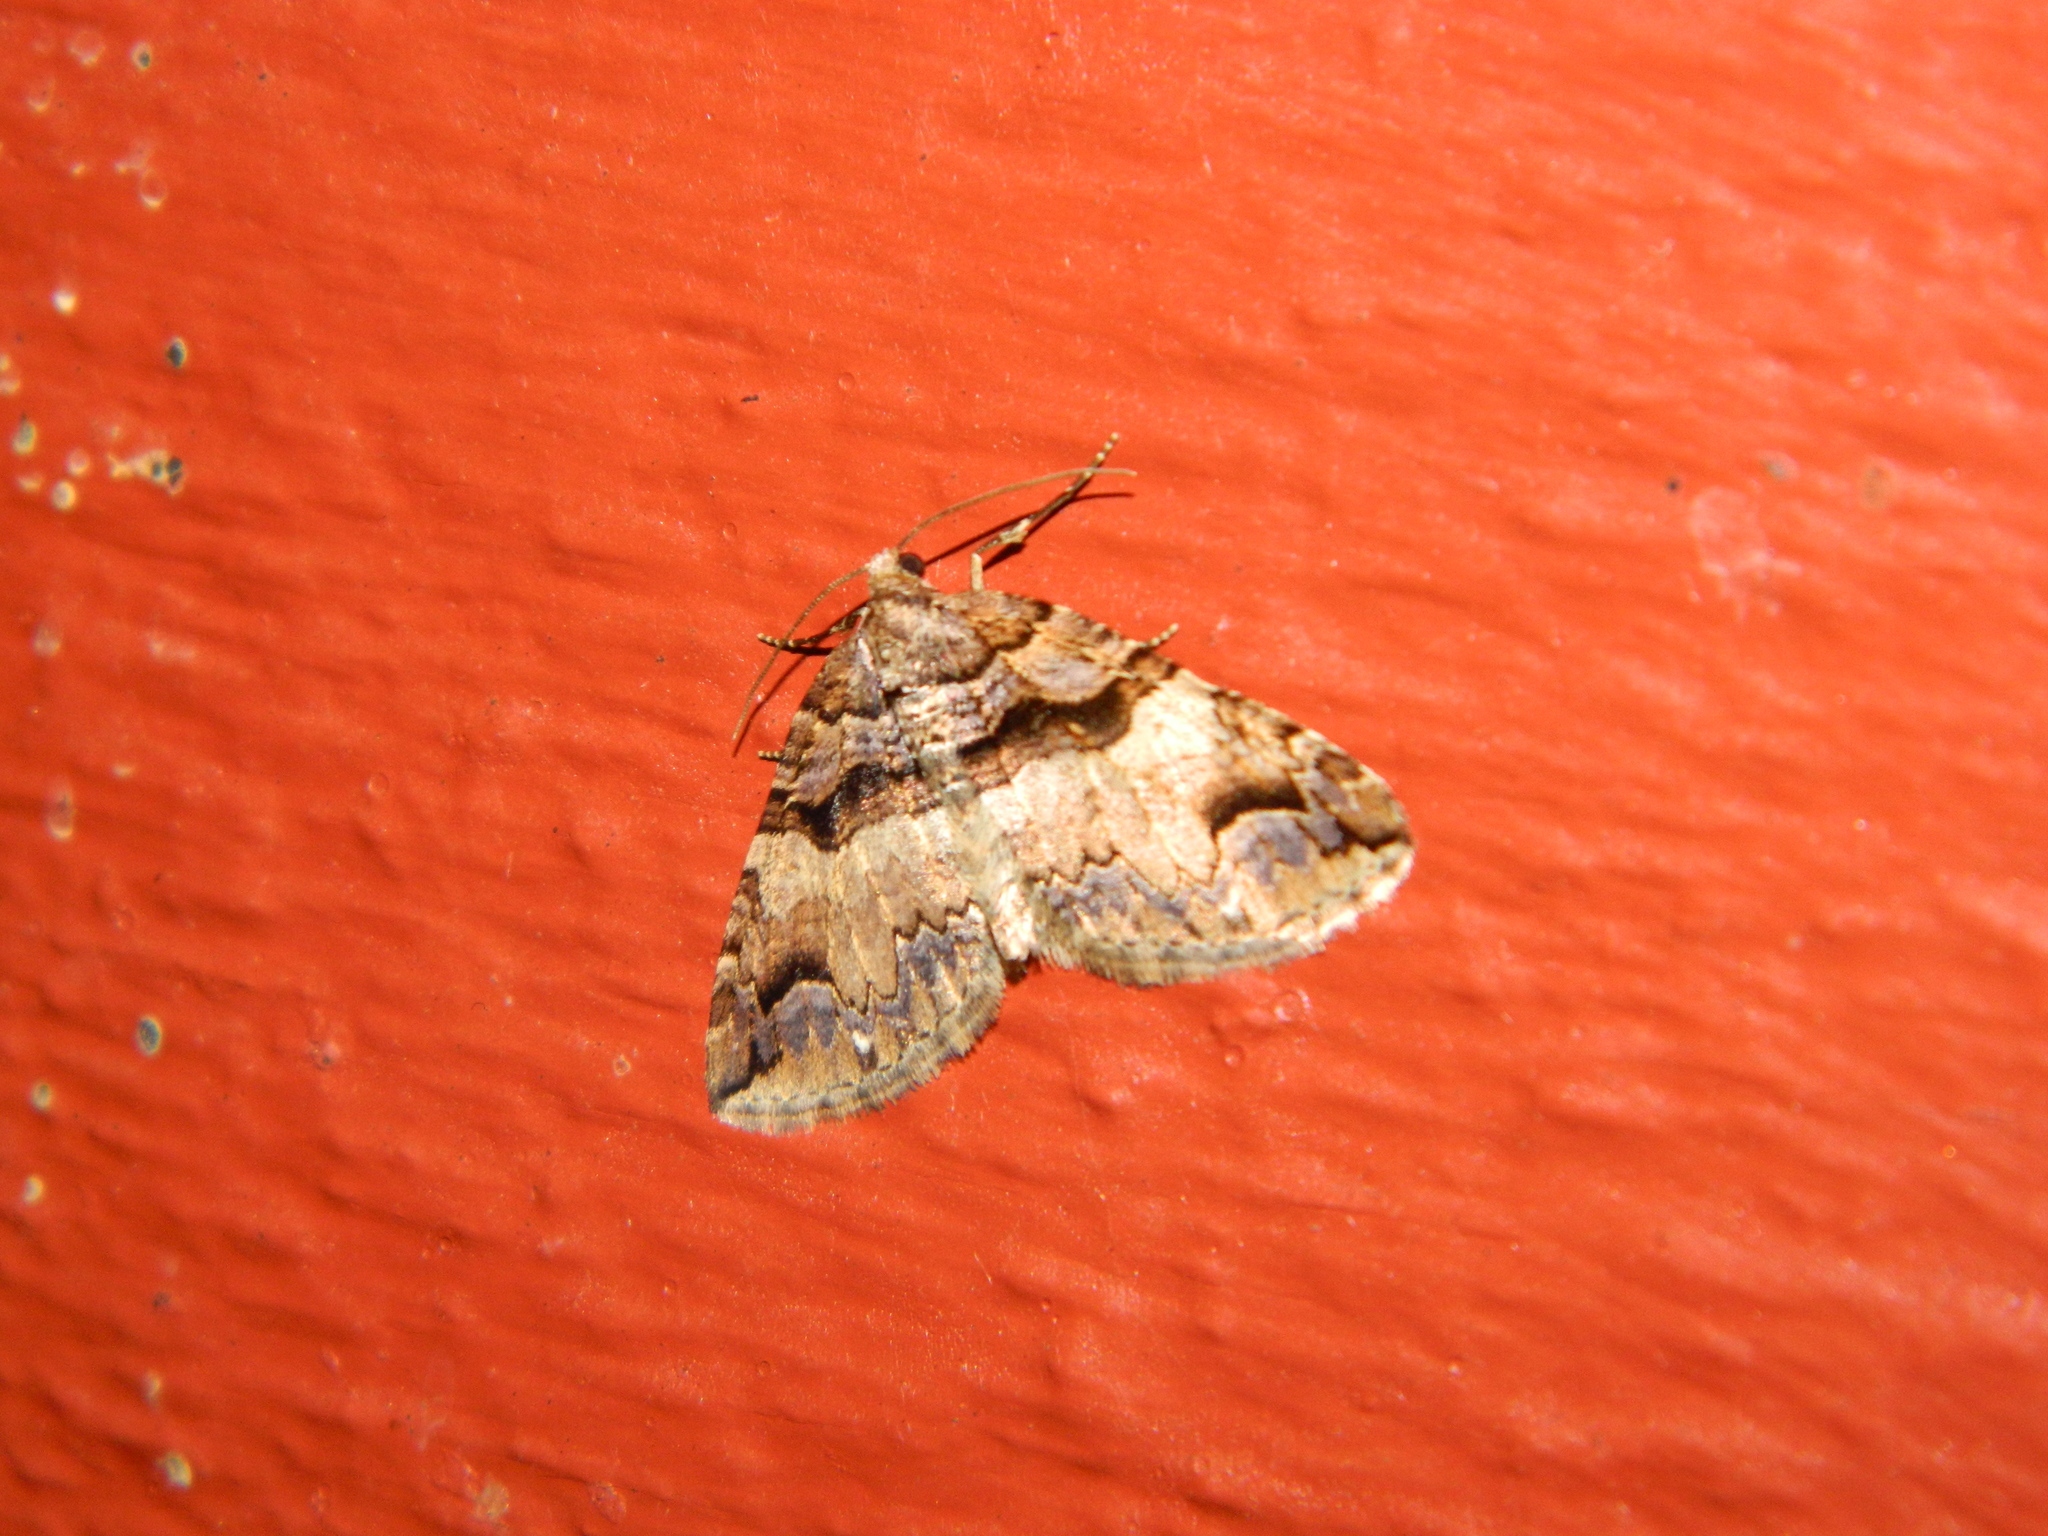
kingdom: Animalia
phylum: Arthropoda
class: Insecta
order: Lepidoptera
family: Geometridae
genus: Anticlea
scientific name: Anticlea vasiliata
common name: Variable carpet
